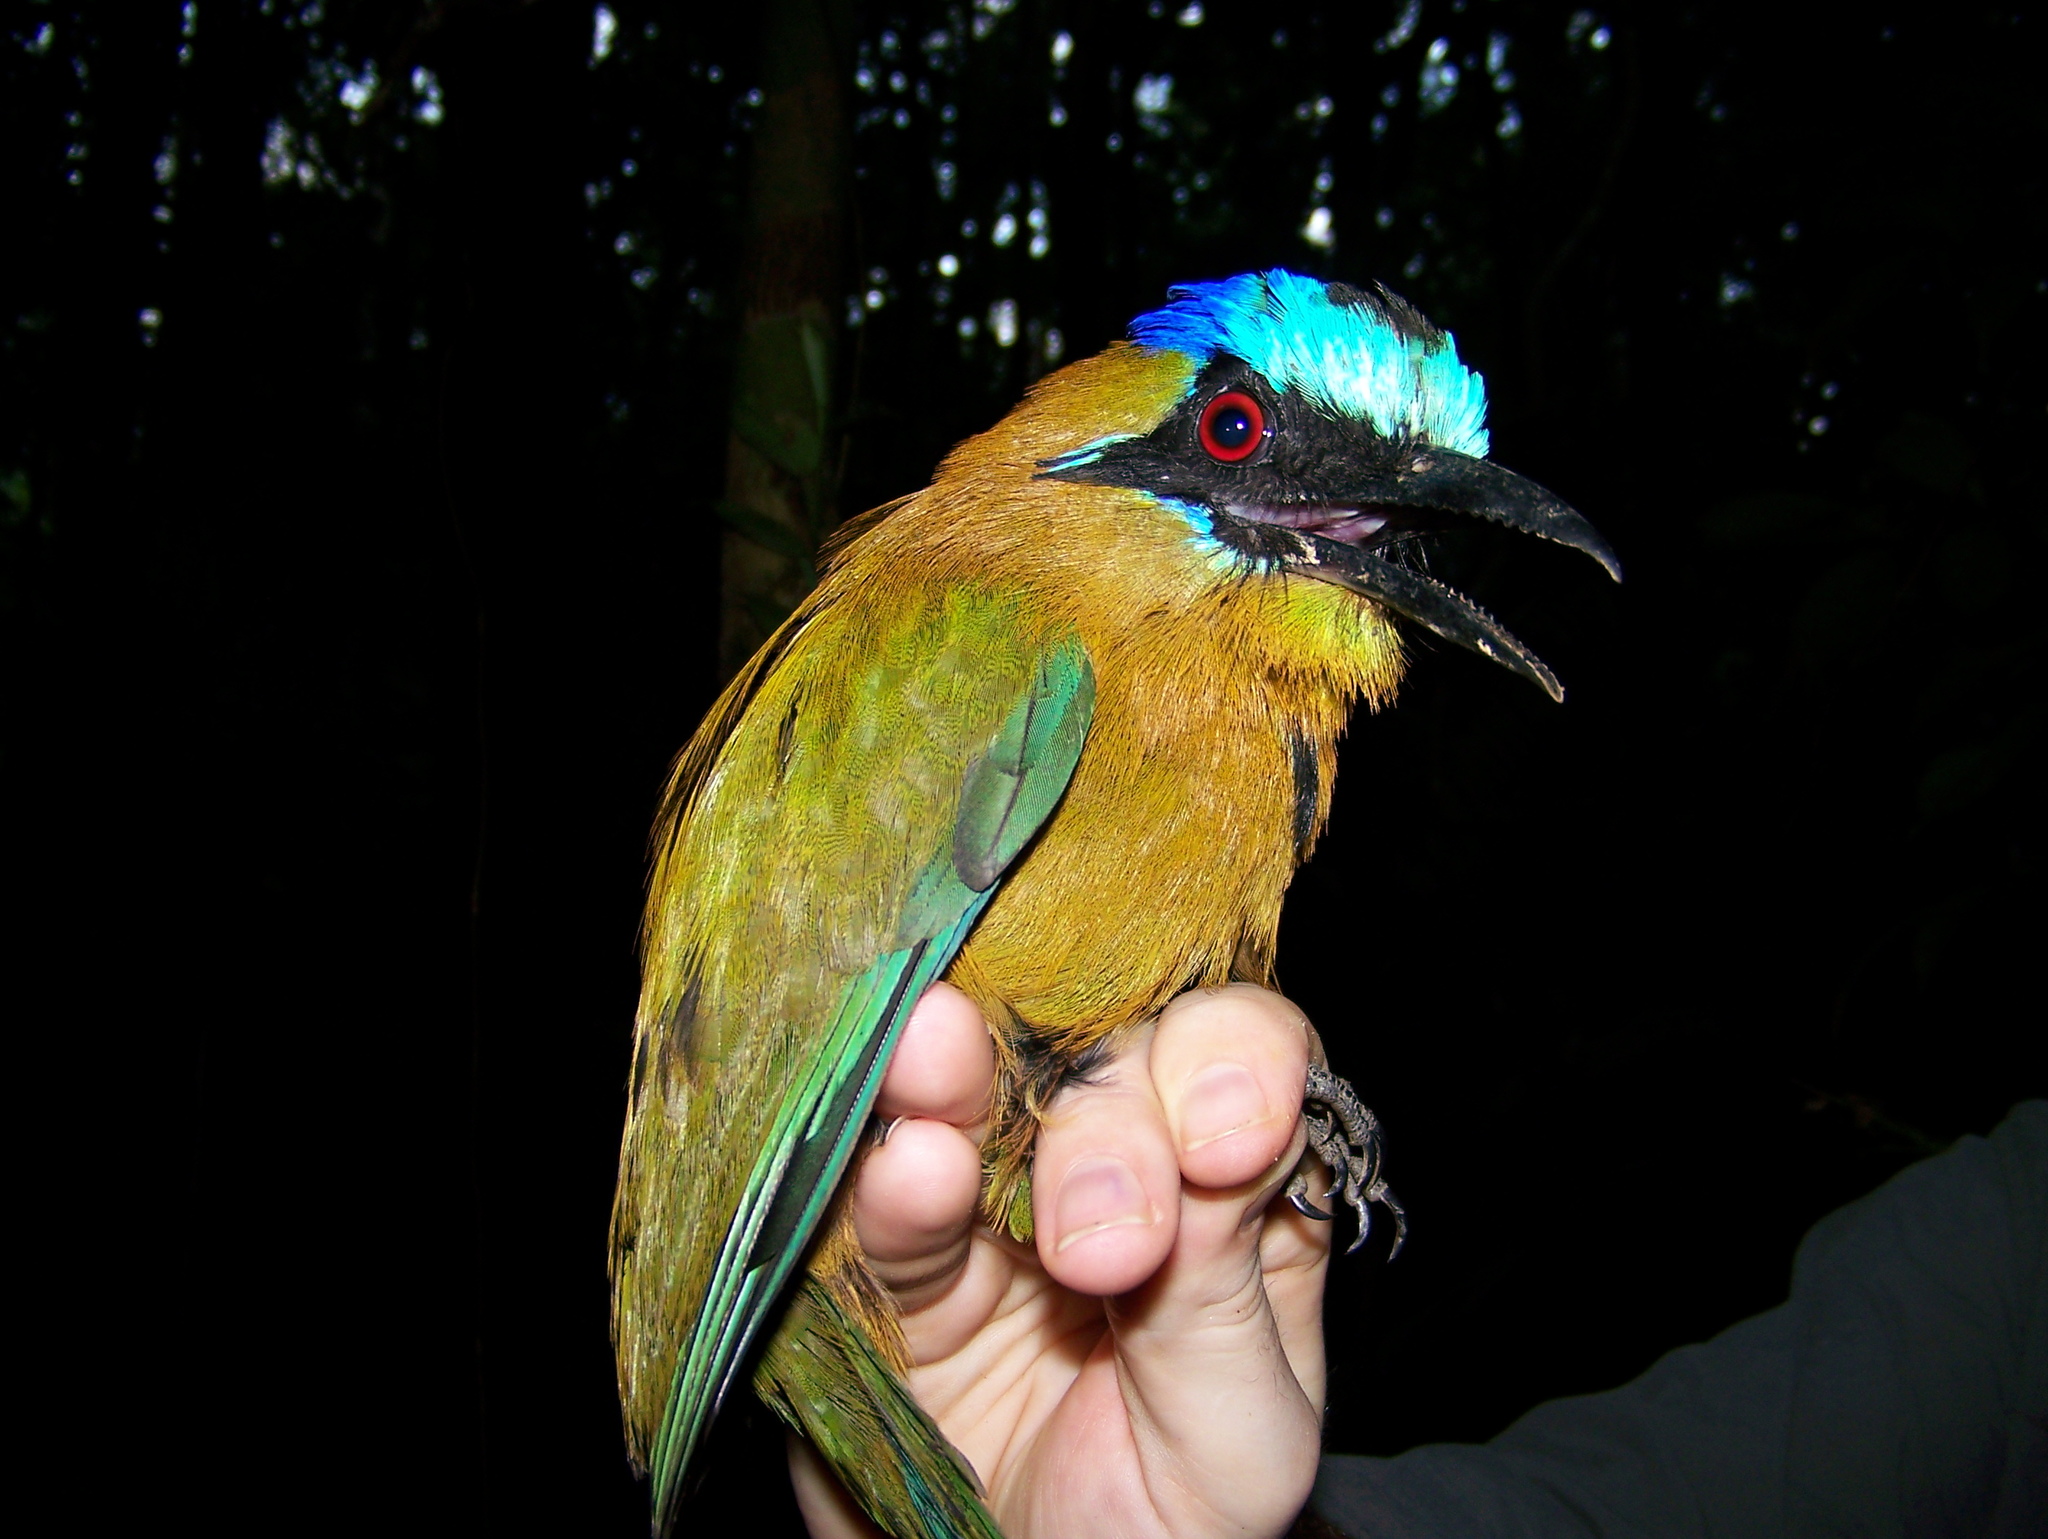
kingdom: Animalia
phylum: Chordata
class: Aves
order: Coraciiformes
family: Momotidae
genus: Momotus
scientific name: Momotus momota
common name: Amazonian motmot
